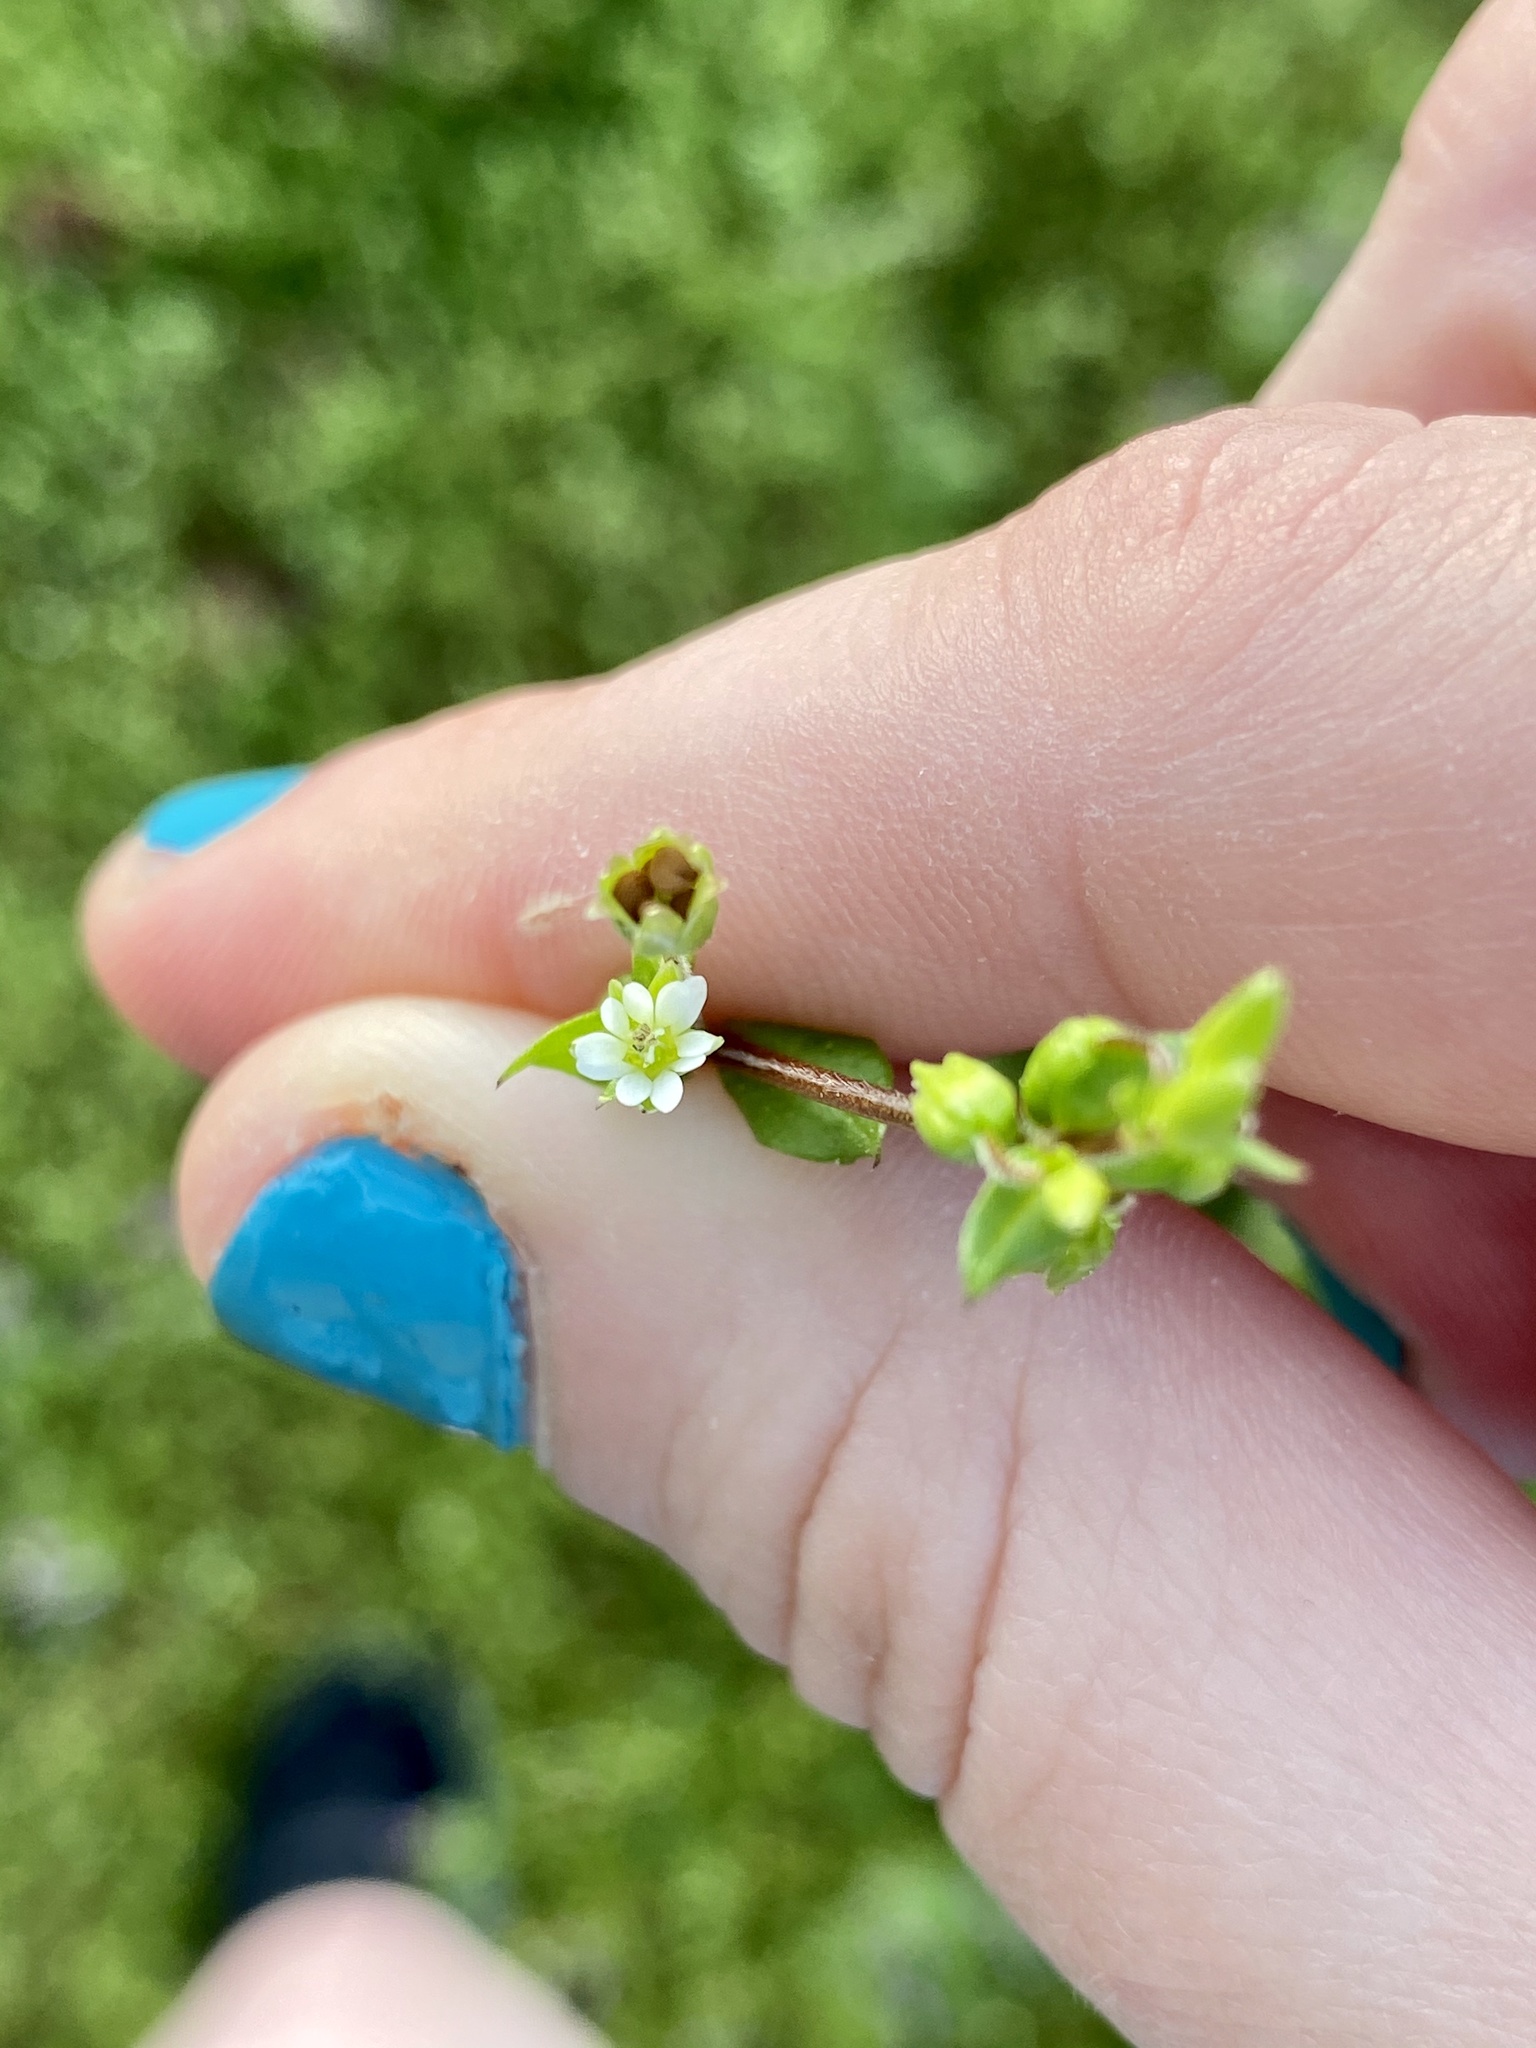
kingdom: Plantae
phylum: Tracheophyta
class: Magnoliopsida
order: Caryophyllales
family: Caryophyllaceae
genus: Stellaria
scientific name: Stellaria media
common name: Common chickweed
